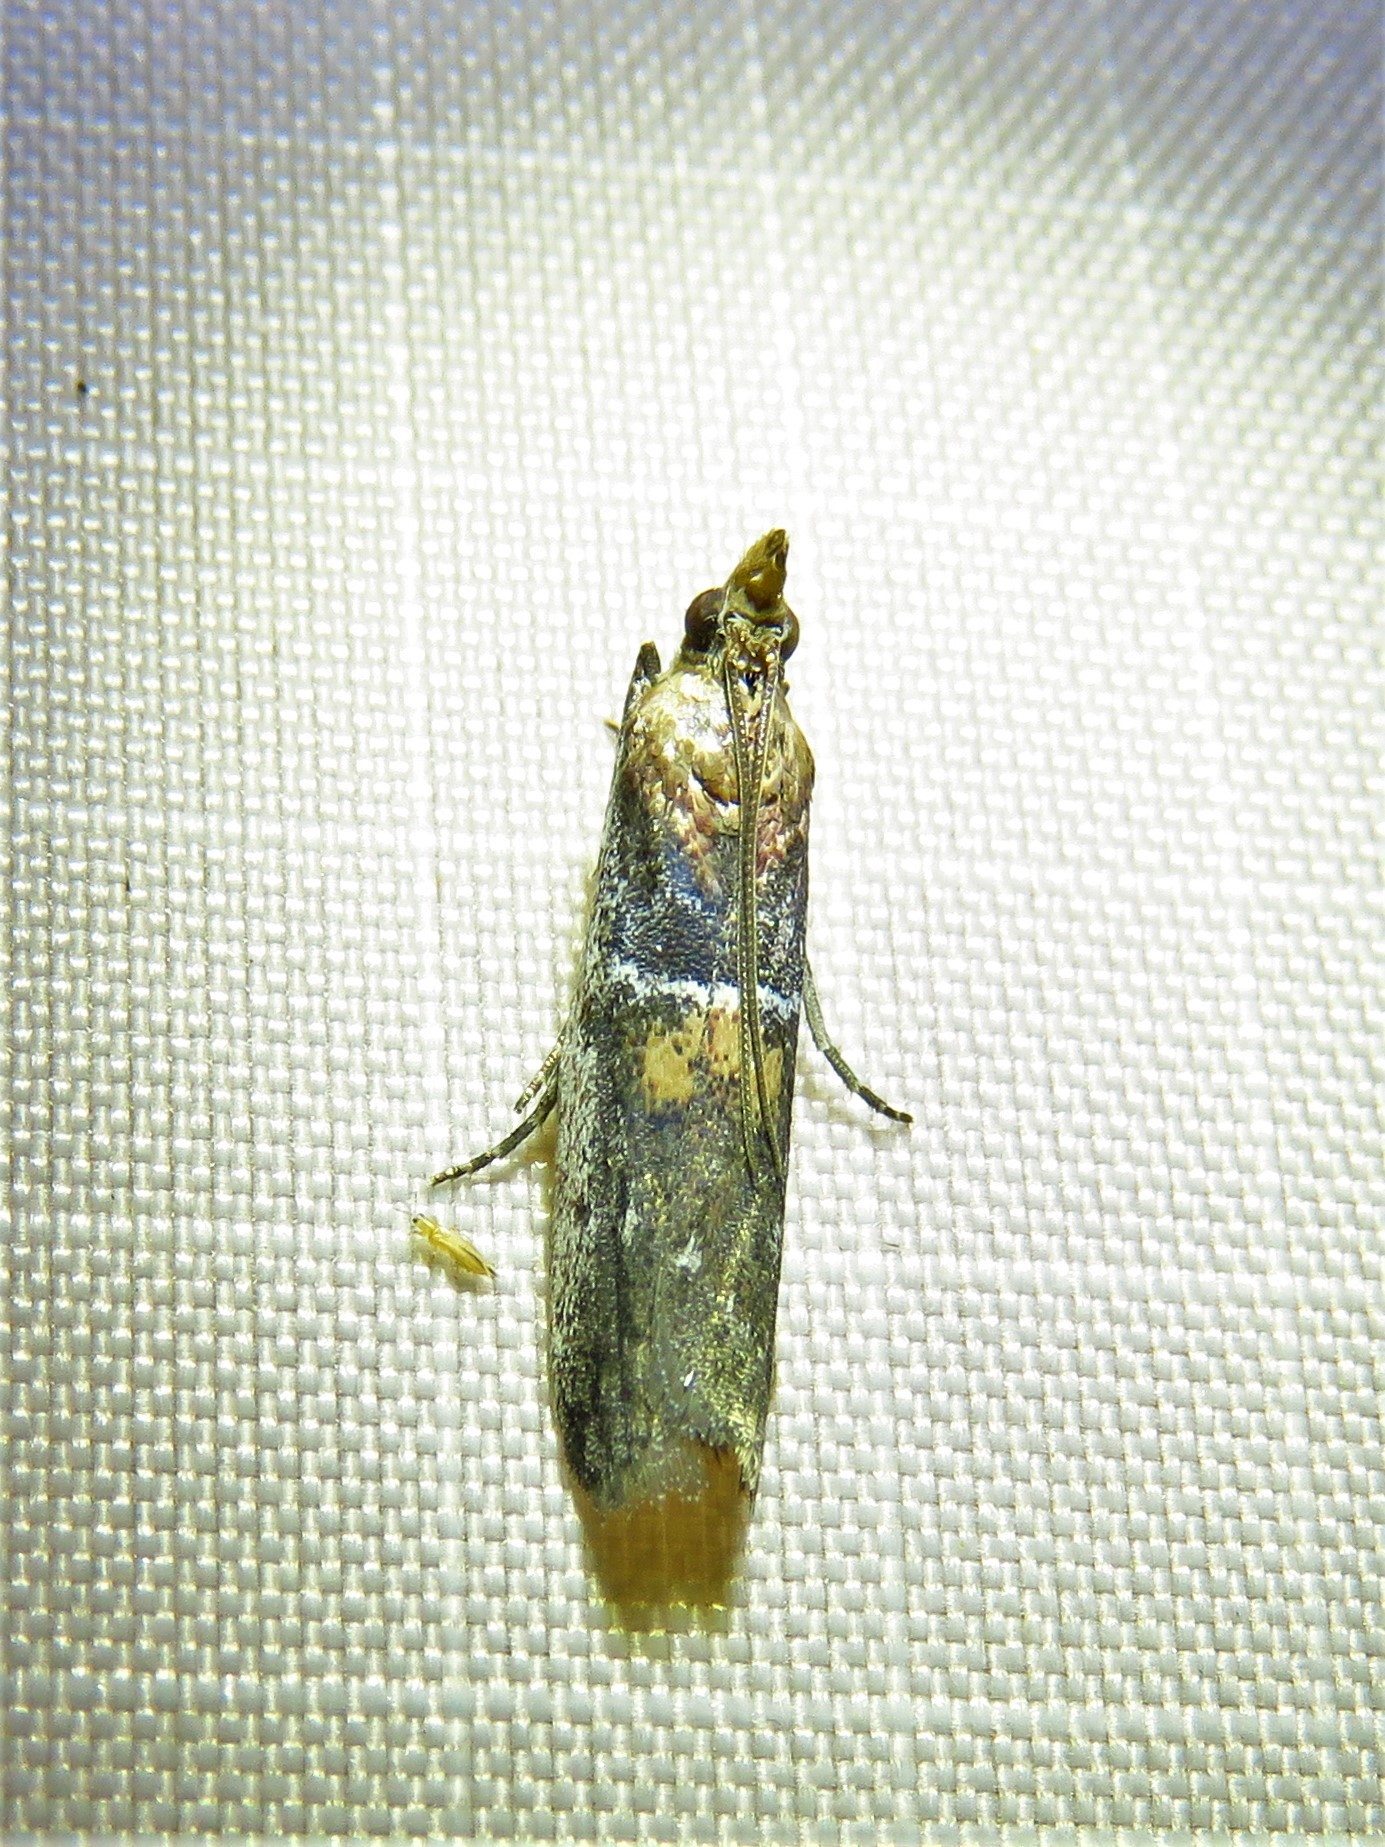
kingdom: Animalia
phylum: Arthropoda
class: Insecta
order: Lepidoptera
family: Pyralidae
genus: Honora
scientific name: Honora mellinella
